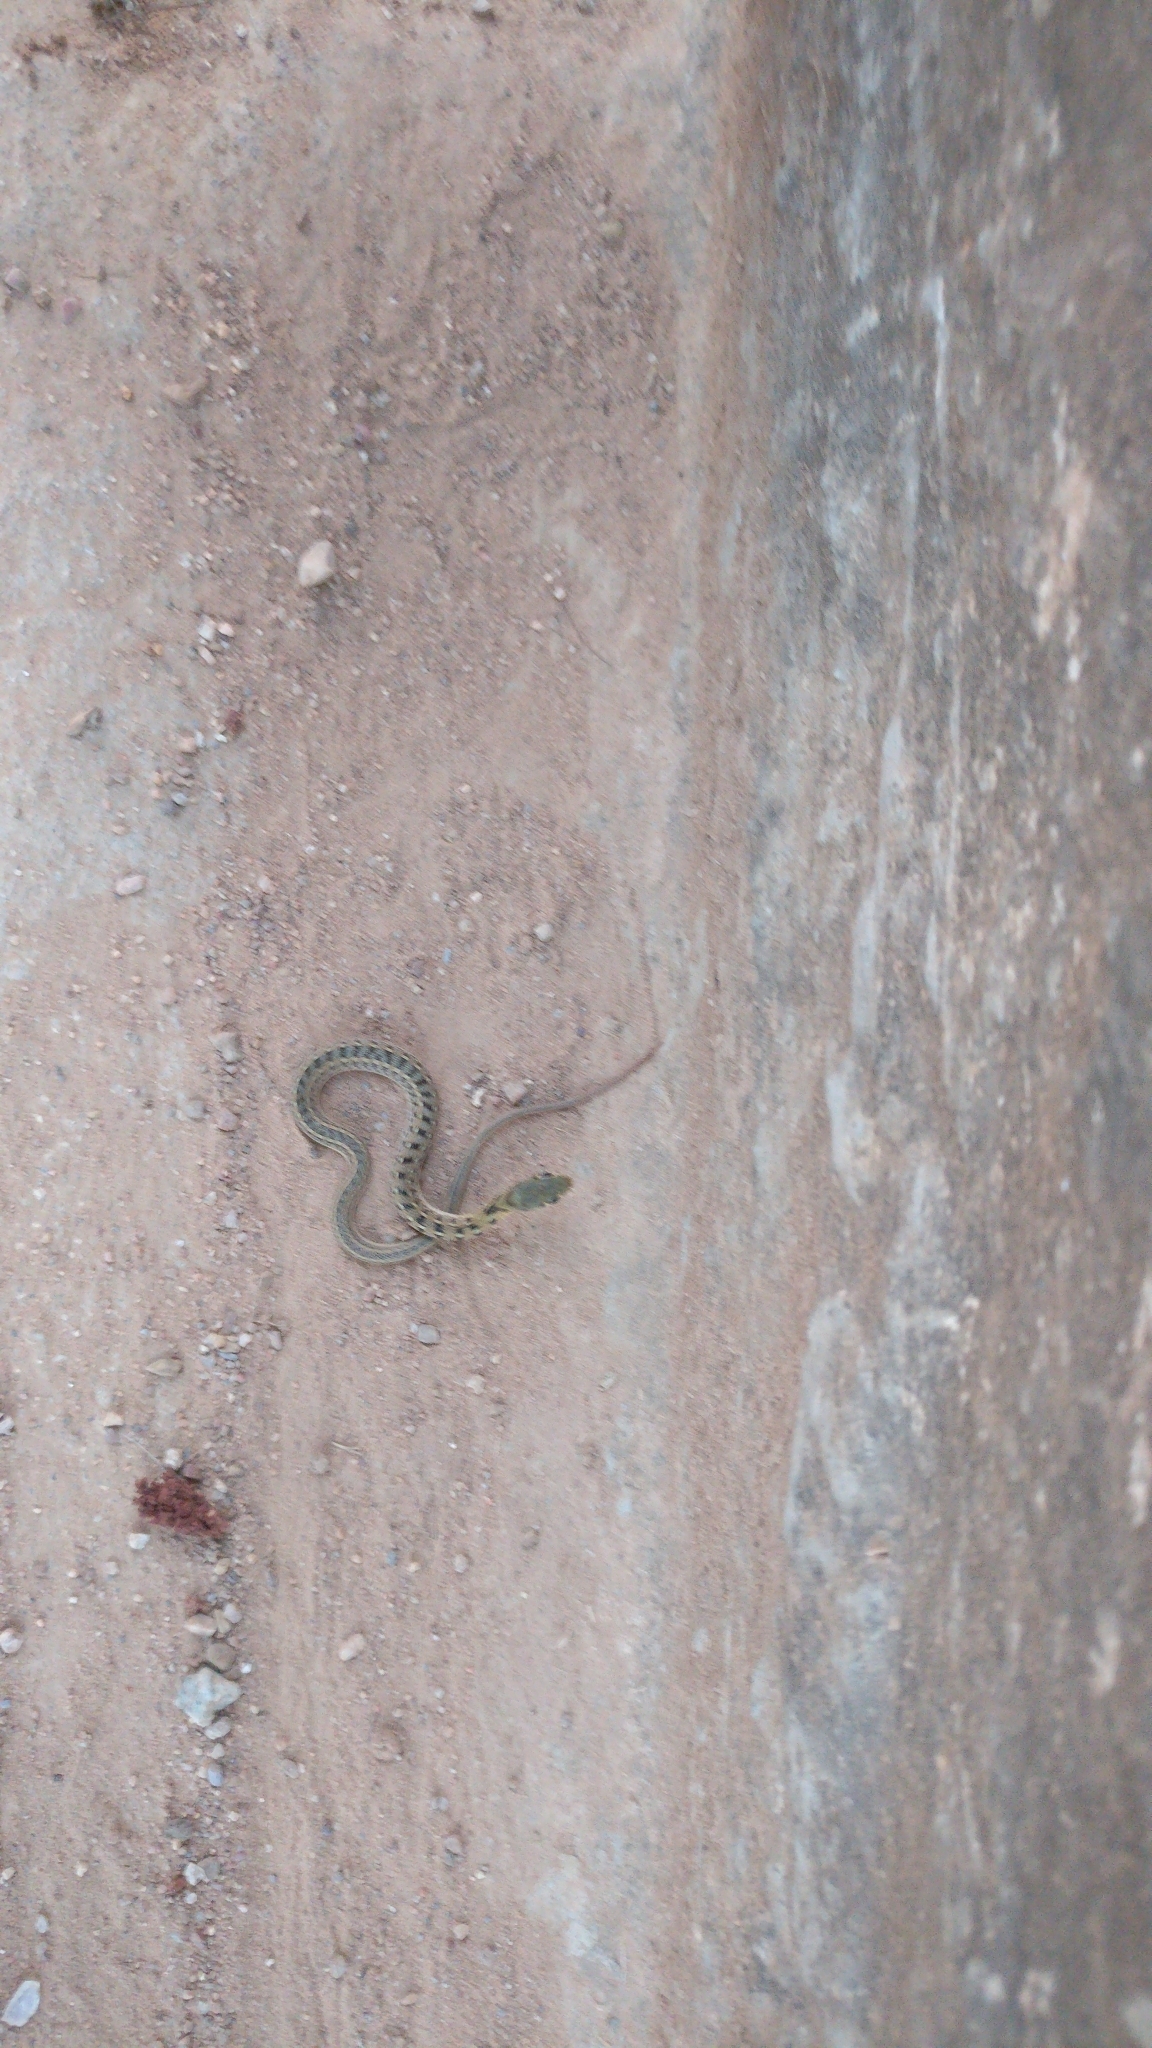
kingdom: Animalia
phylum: Chordata
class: Squamata
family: Colubridae
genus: Amphiesma
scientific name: Amphiesma stolatum
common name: Buff striped keelback
